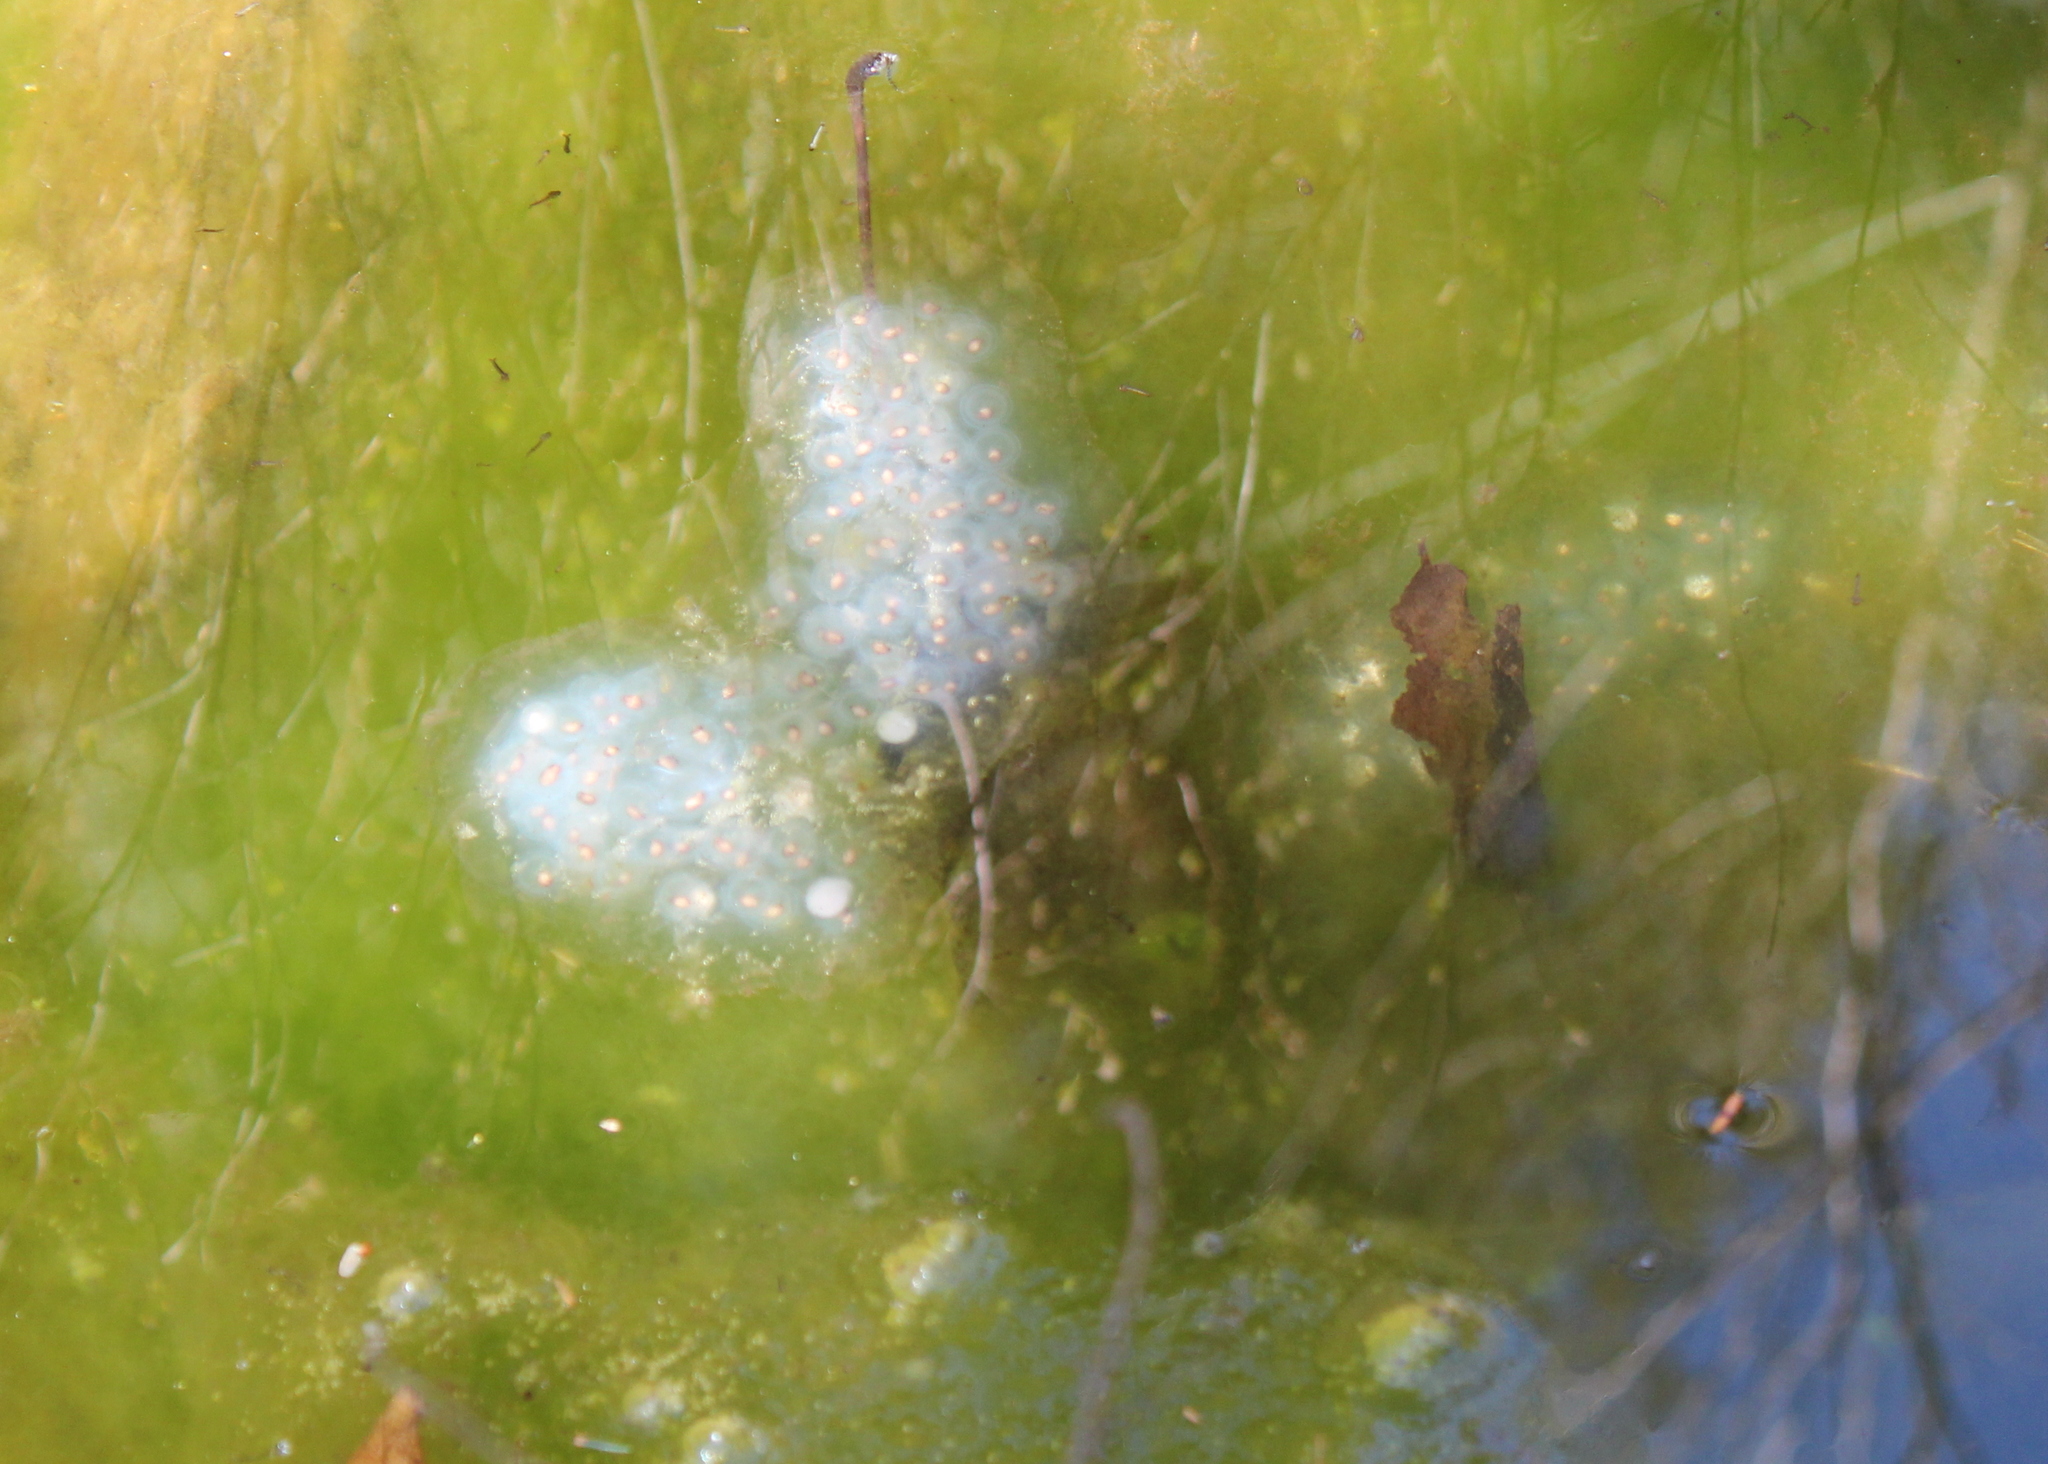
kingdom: Animalia
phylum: Chordata
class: Amphibia
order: Caudata
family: Ambystomatidae
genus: Ambystoma
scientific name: Ambystoma maculatum
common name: Spotted salamander
